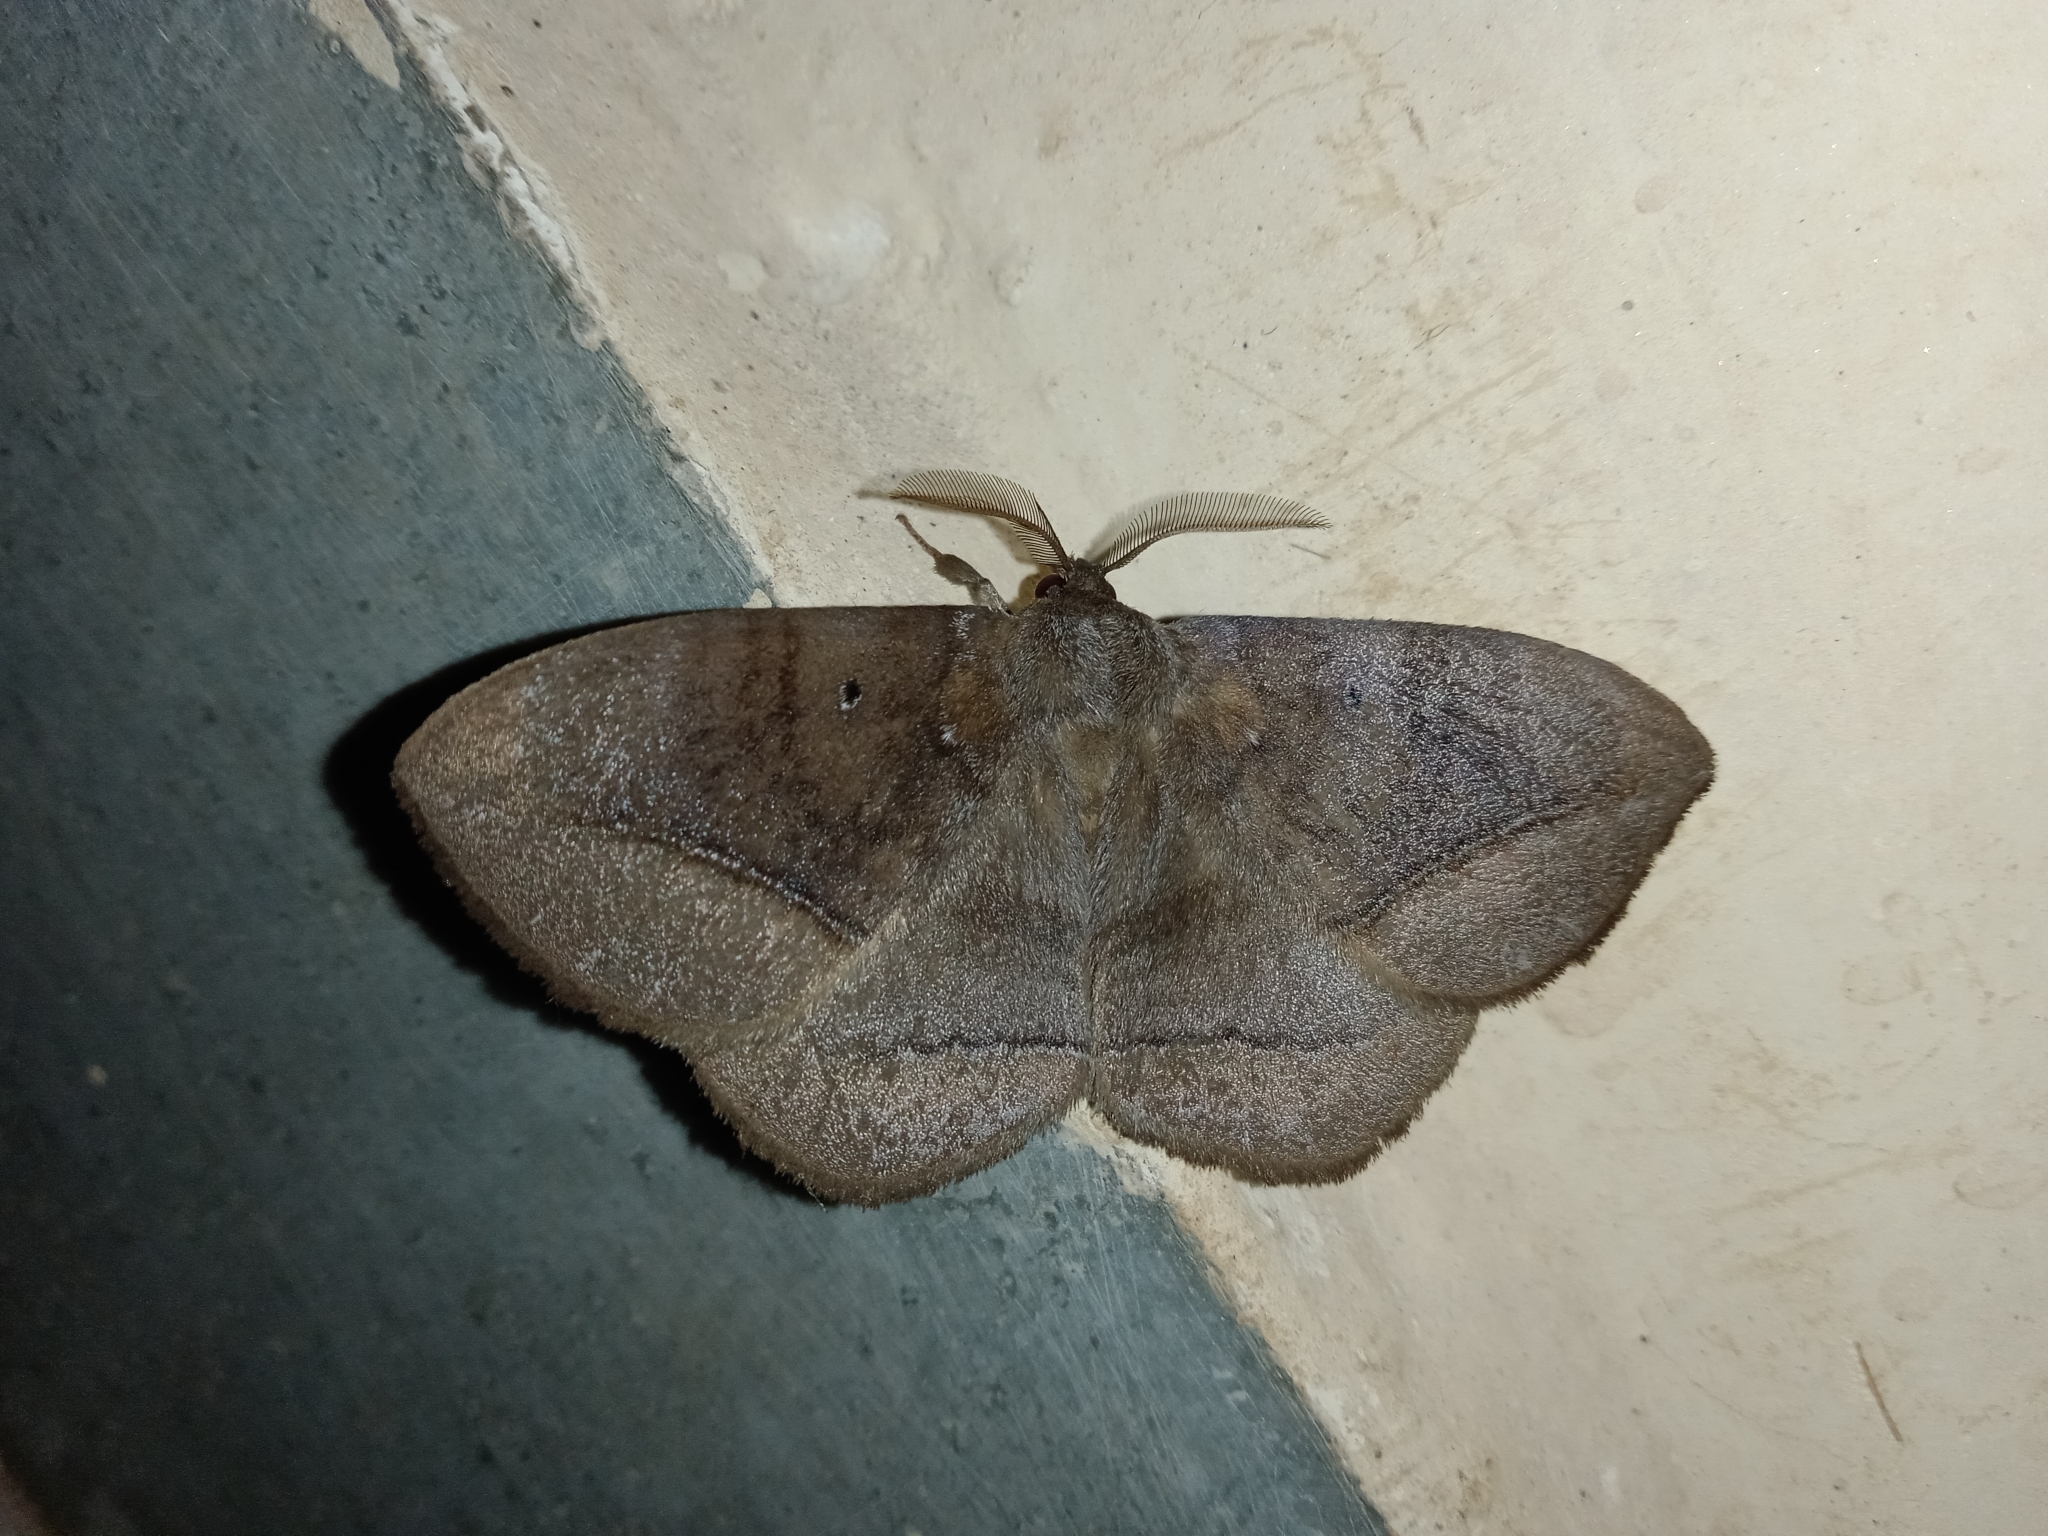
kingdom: Animalia
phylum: Arthropoda
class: Insecta
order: Lepidoptera
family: Eupterotidae
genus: Ganisa
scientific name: Ganisa postica
